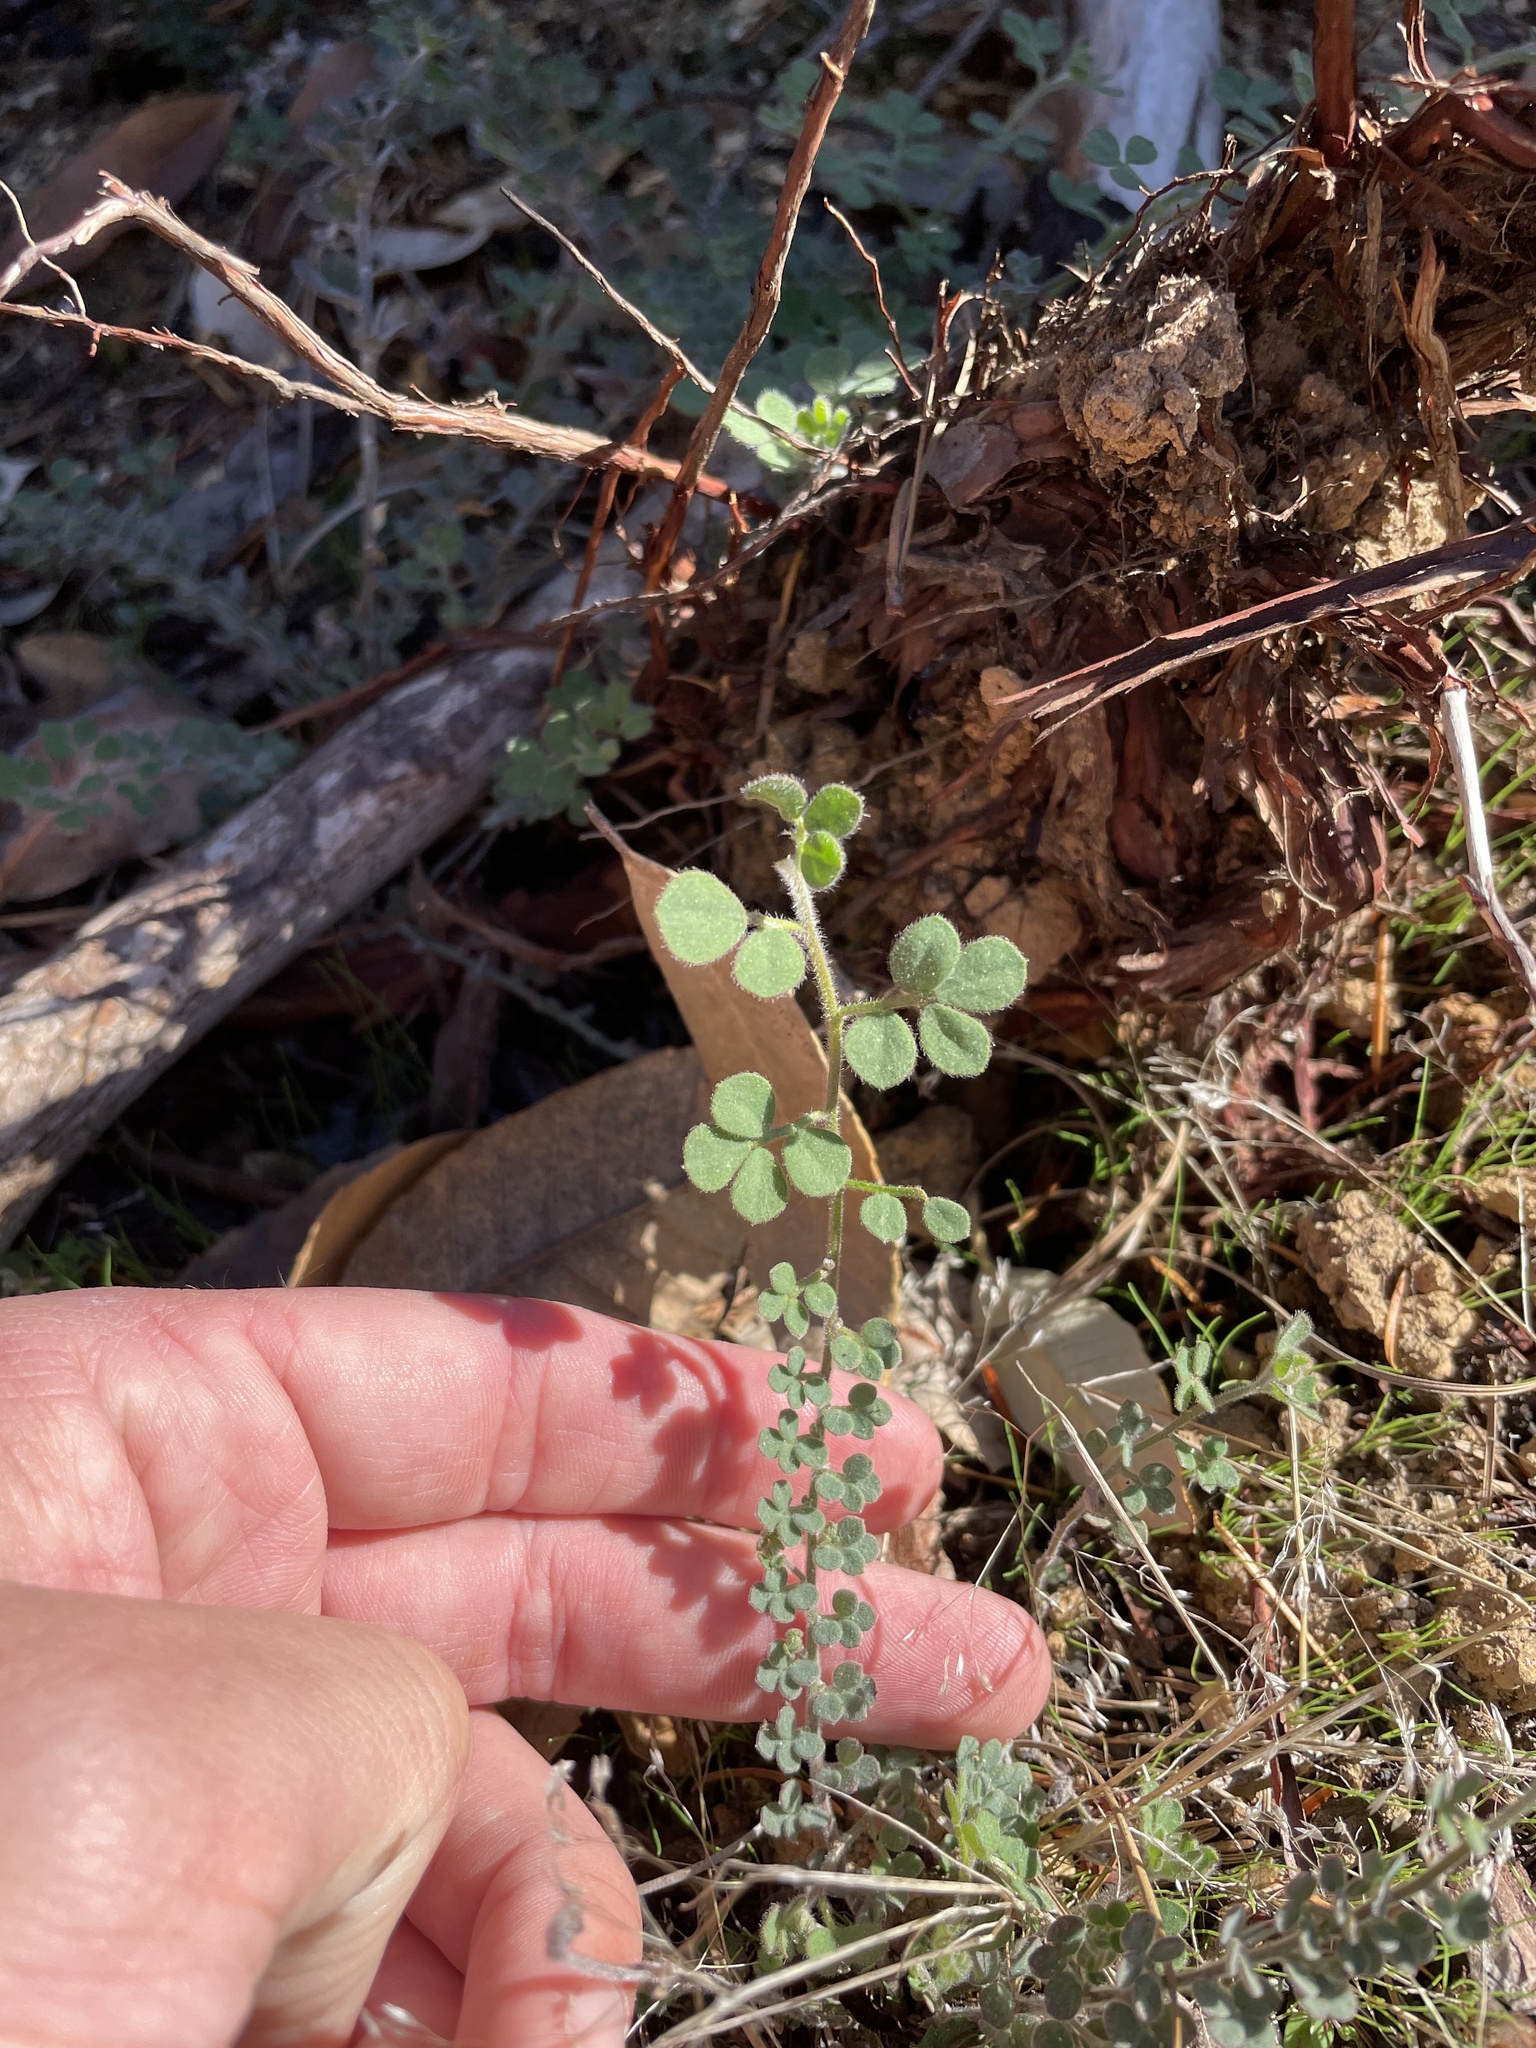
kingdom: Plantae
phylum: Tracheophyta
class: Magnoliopsida
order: Fabales
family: Fabaceae
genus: Acmispon
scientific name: Acmispon tomentosus
